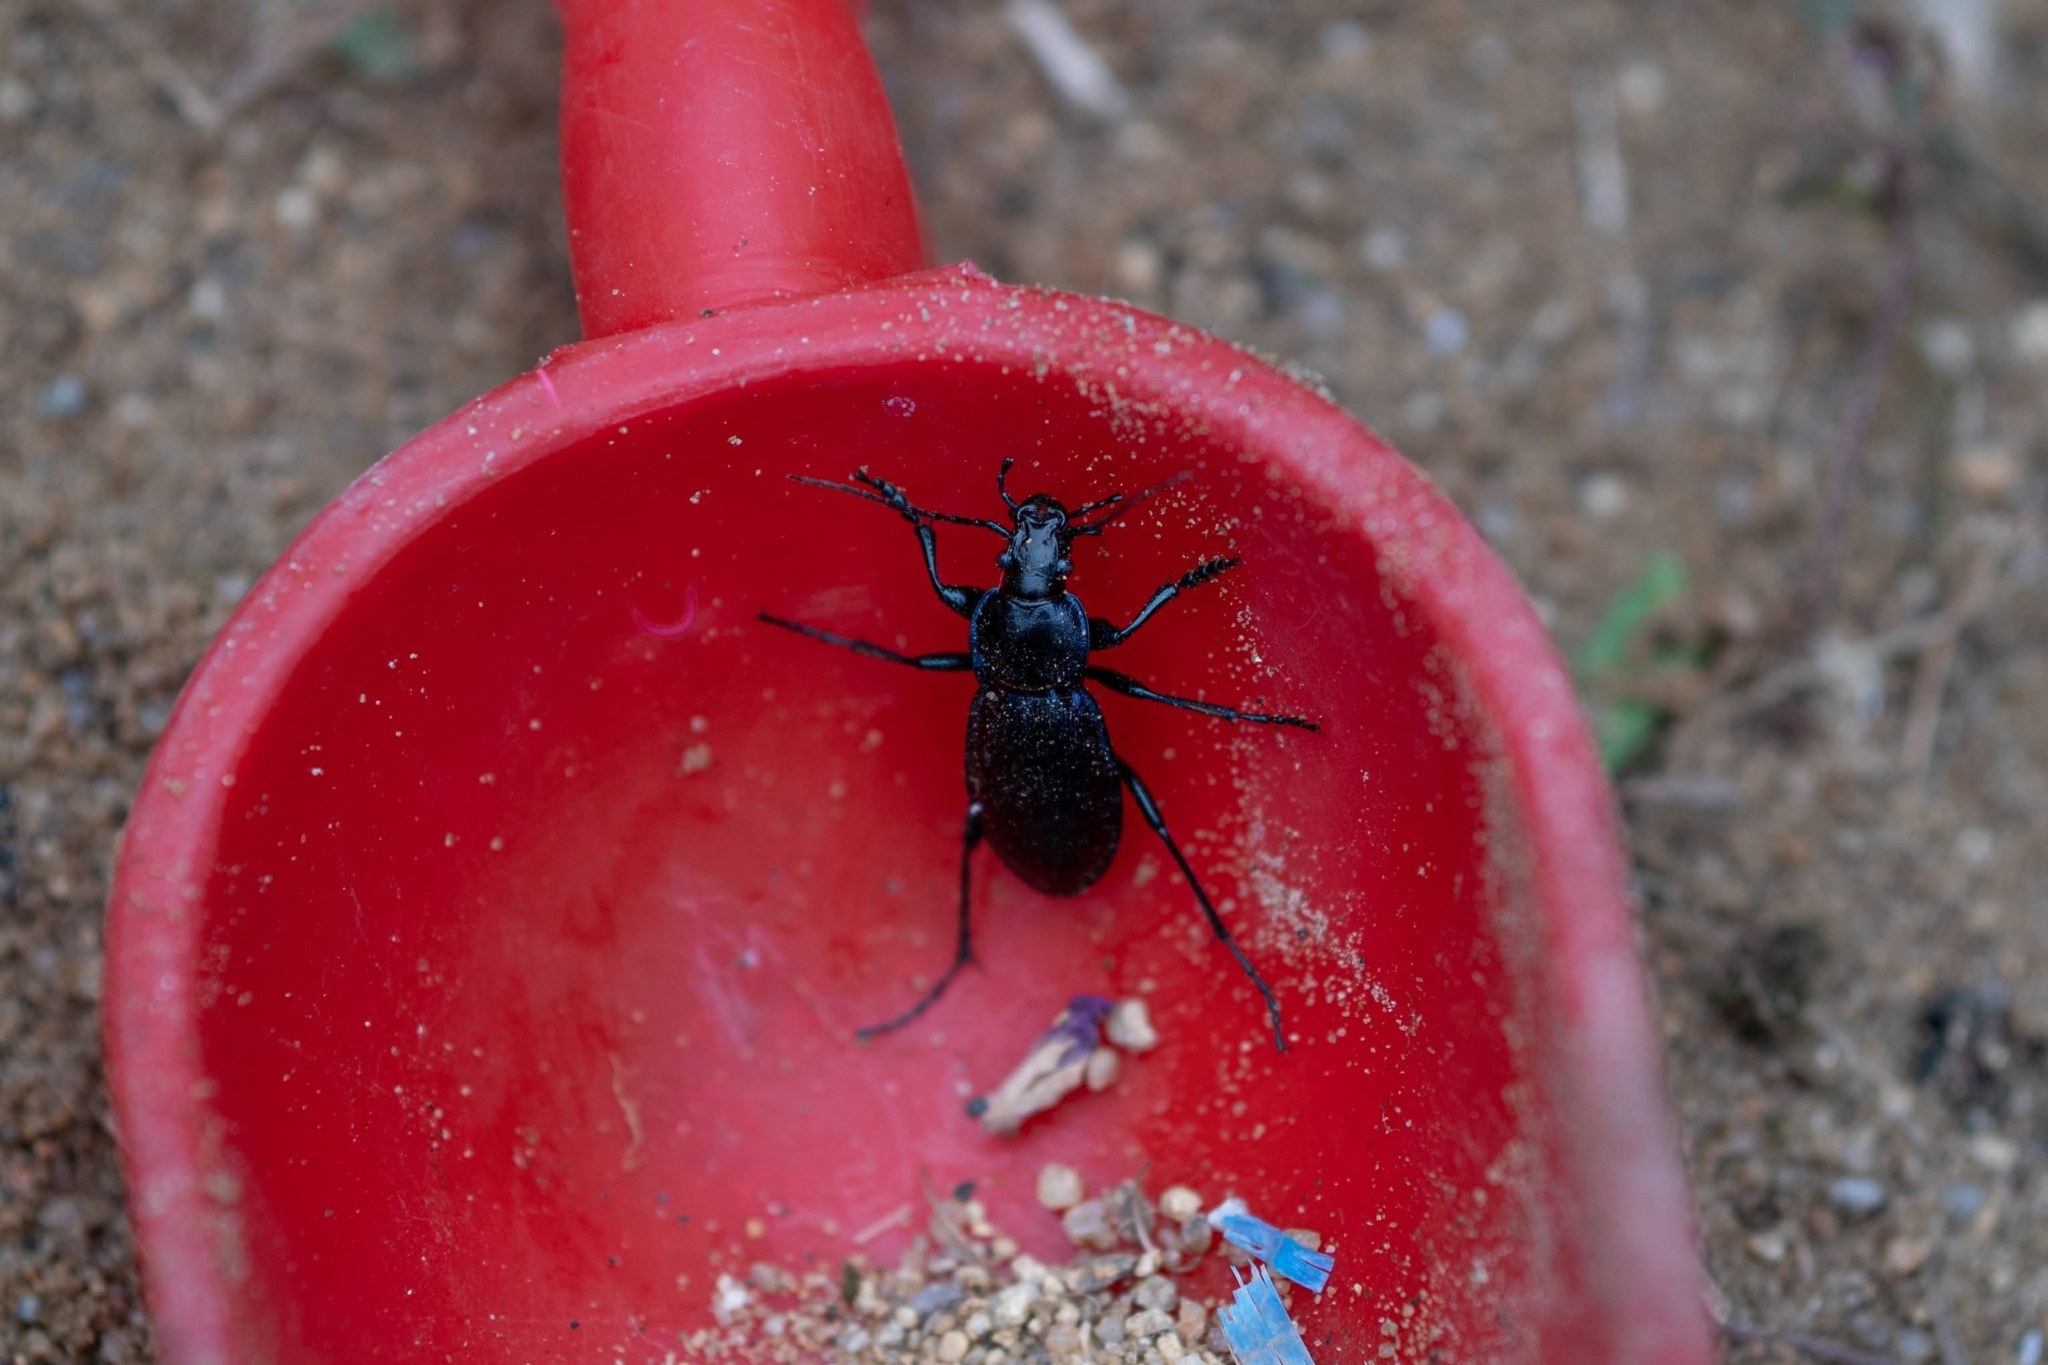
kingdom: Animalia
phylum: Arthropoda
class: Insecta
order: Coleoptera
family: Carabidae
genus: Carabus
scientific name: Carabus scheidleri
